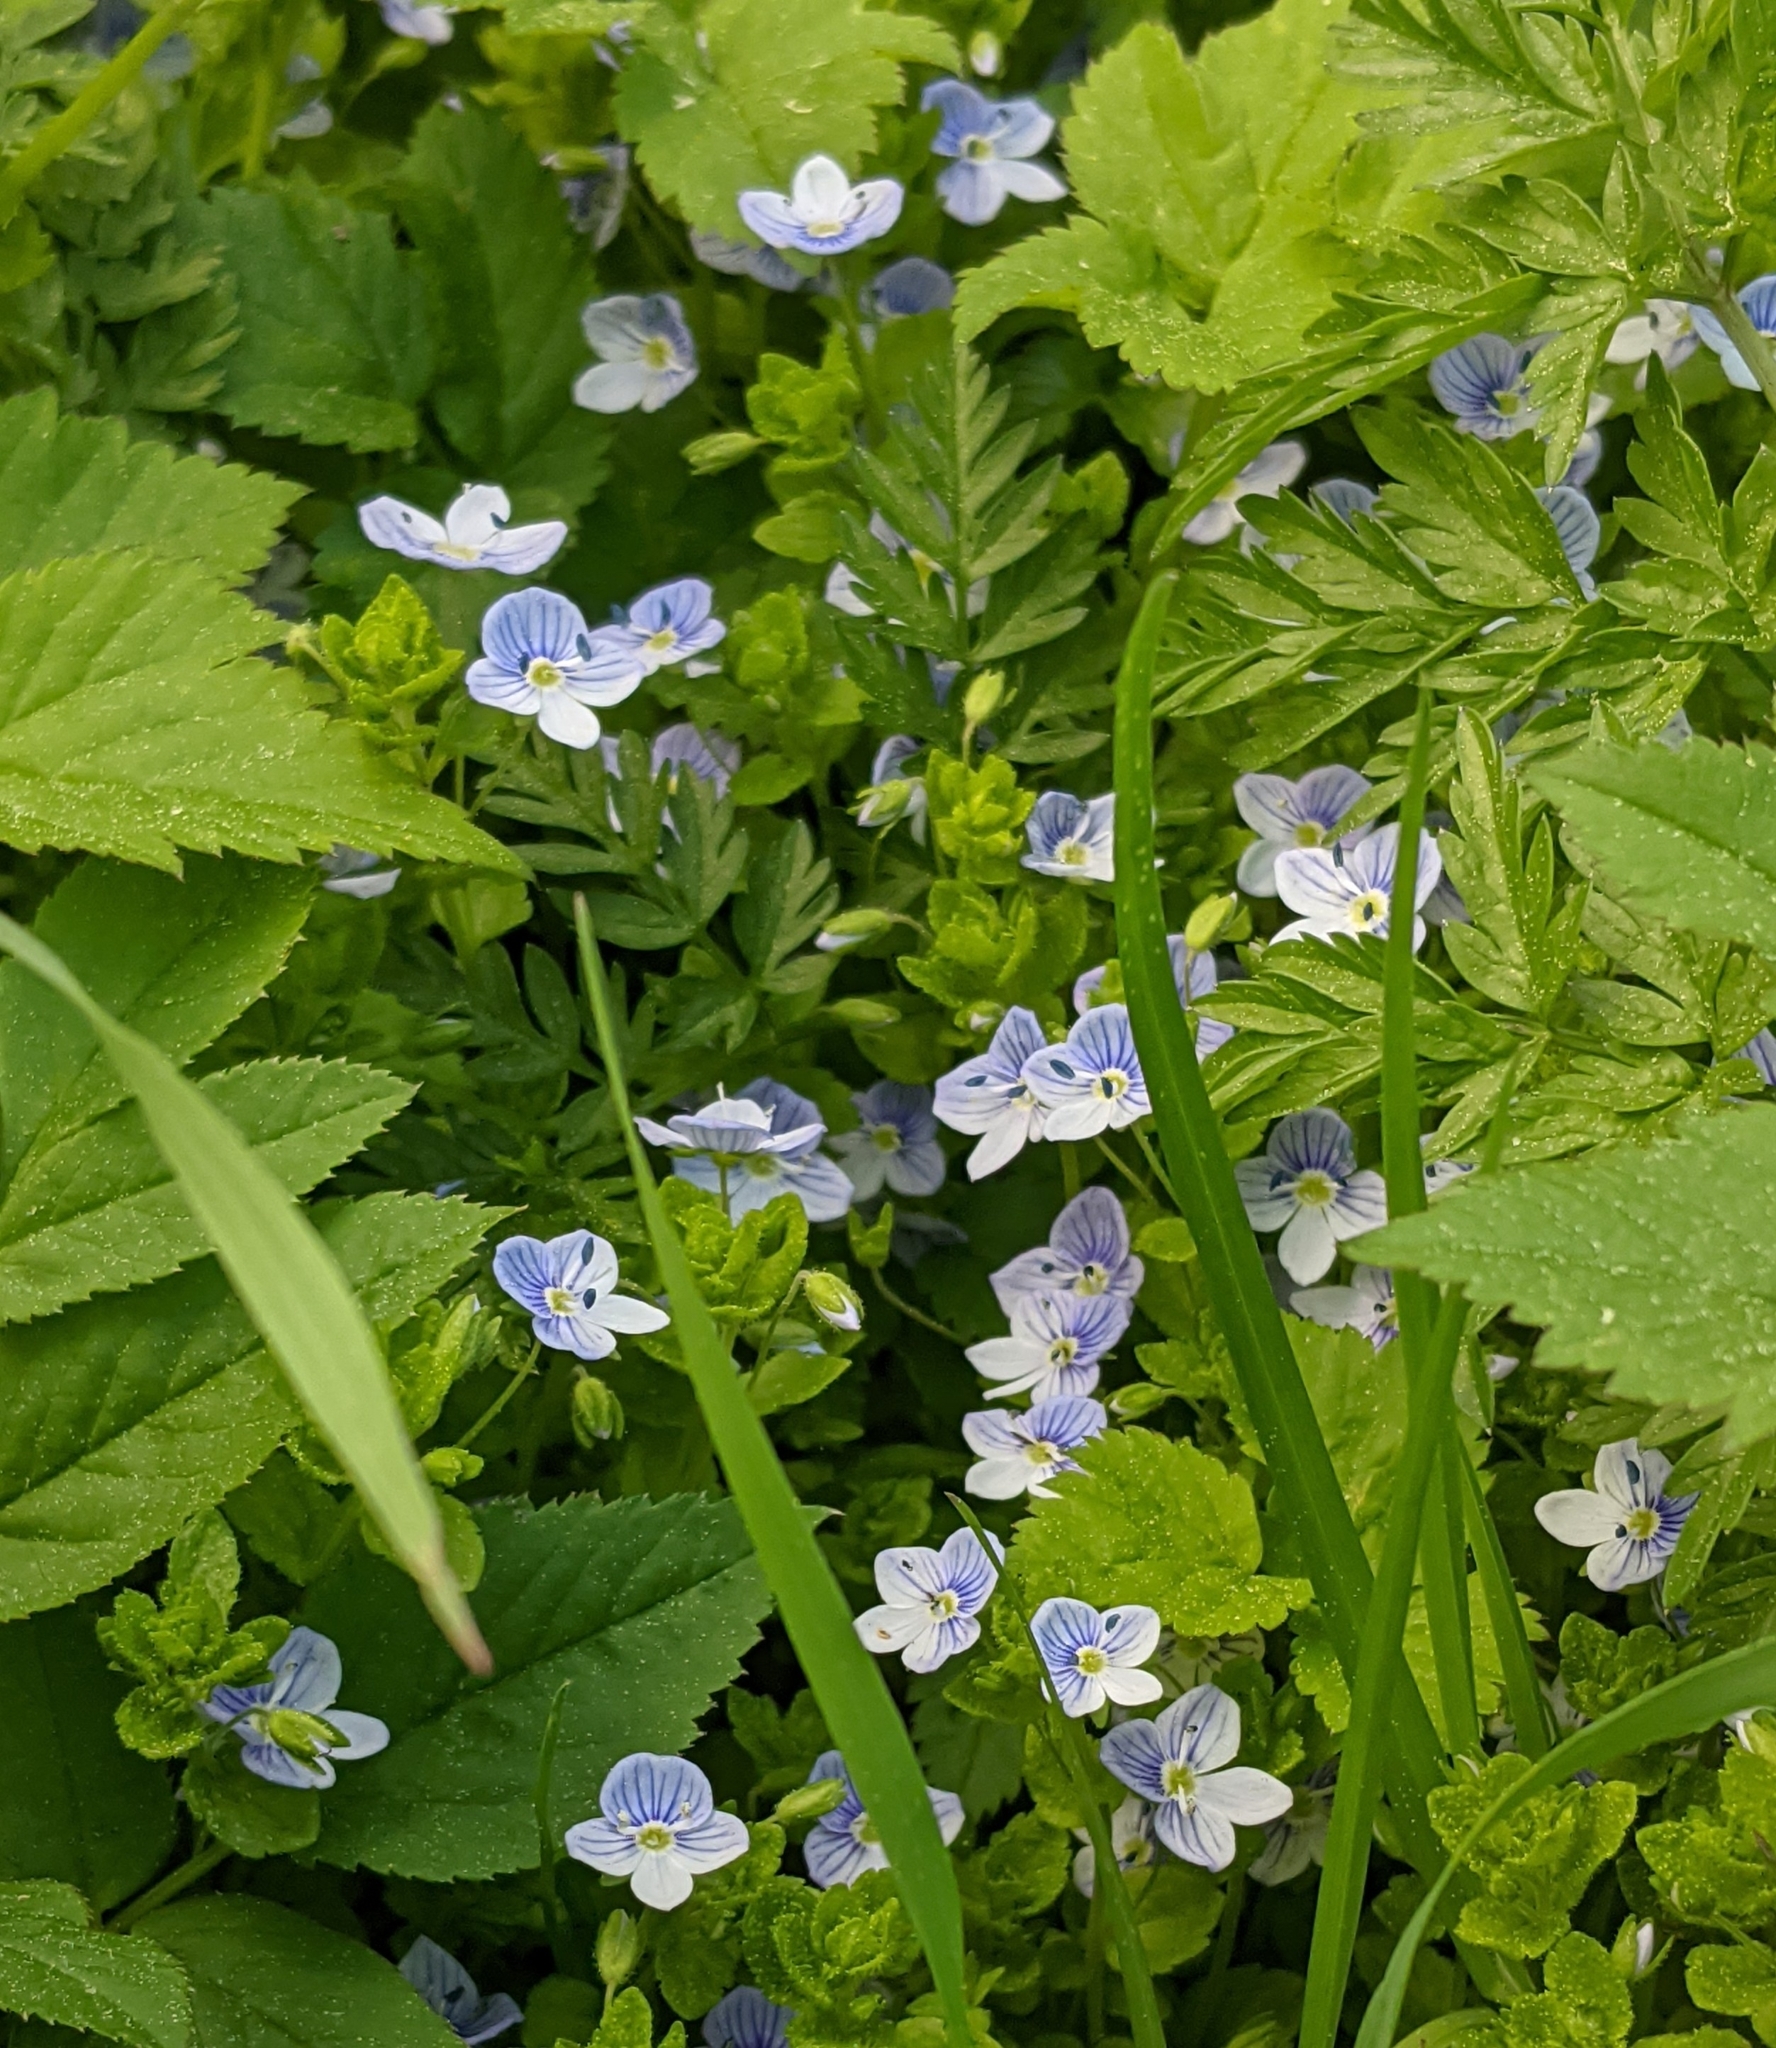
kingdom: Plantae
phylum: Tracheophyta
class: Magnoliopsida
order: Lamiales
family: Plantaginaceae
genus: Veronica
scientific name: Veronica filiformis
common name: Slender speedwell
